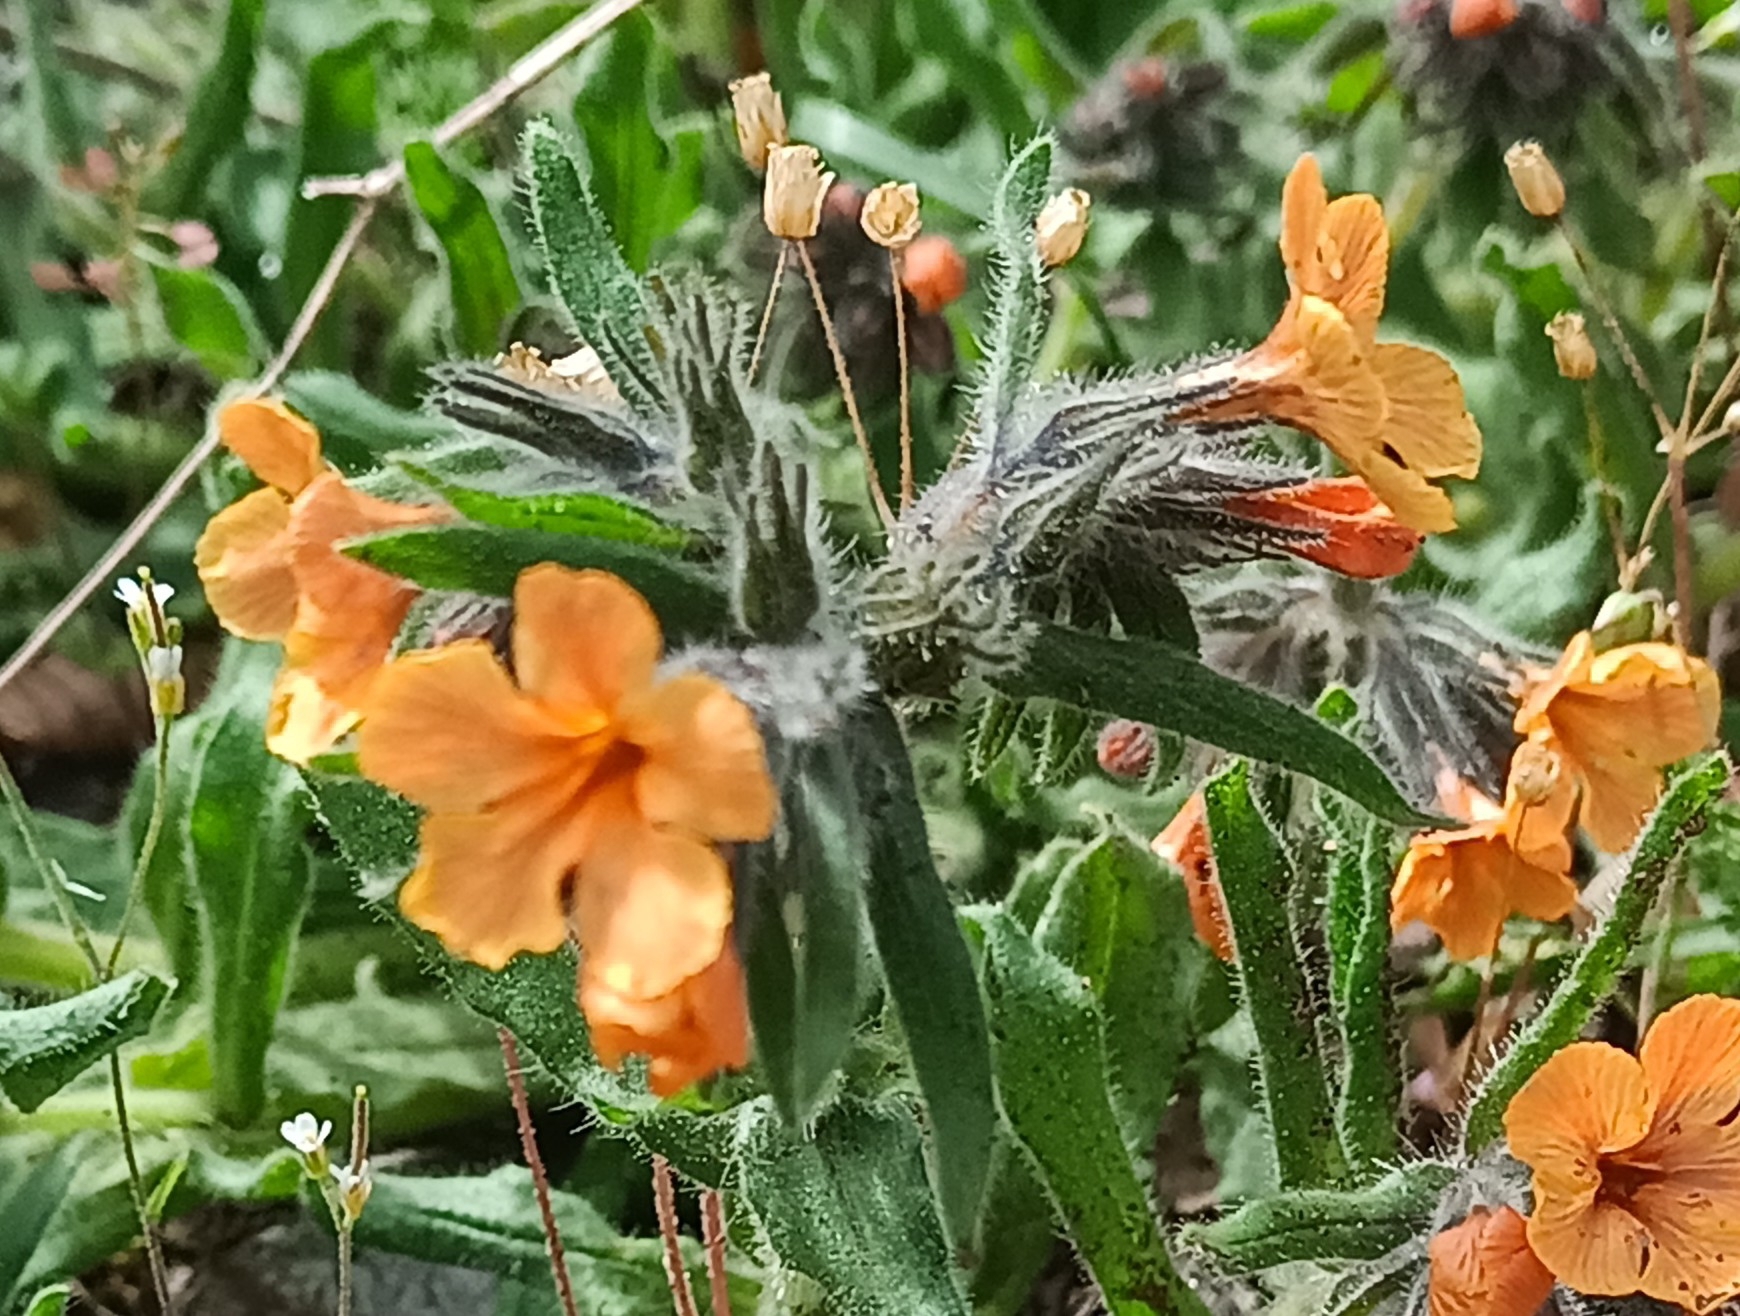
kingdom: Plantae
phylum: Tracheophyta
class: Magnoliopsida
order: Boraginales
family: Boraginaceae
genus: Alkanna
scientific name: Alkanna stribrnyi
